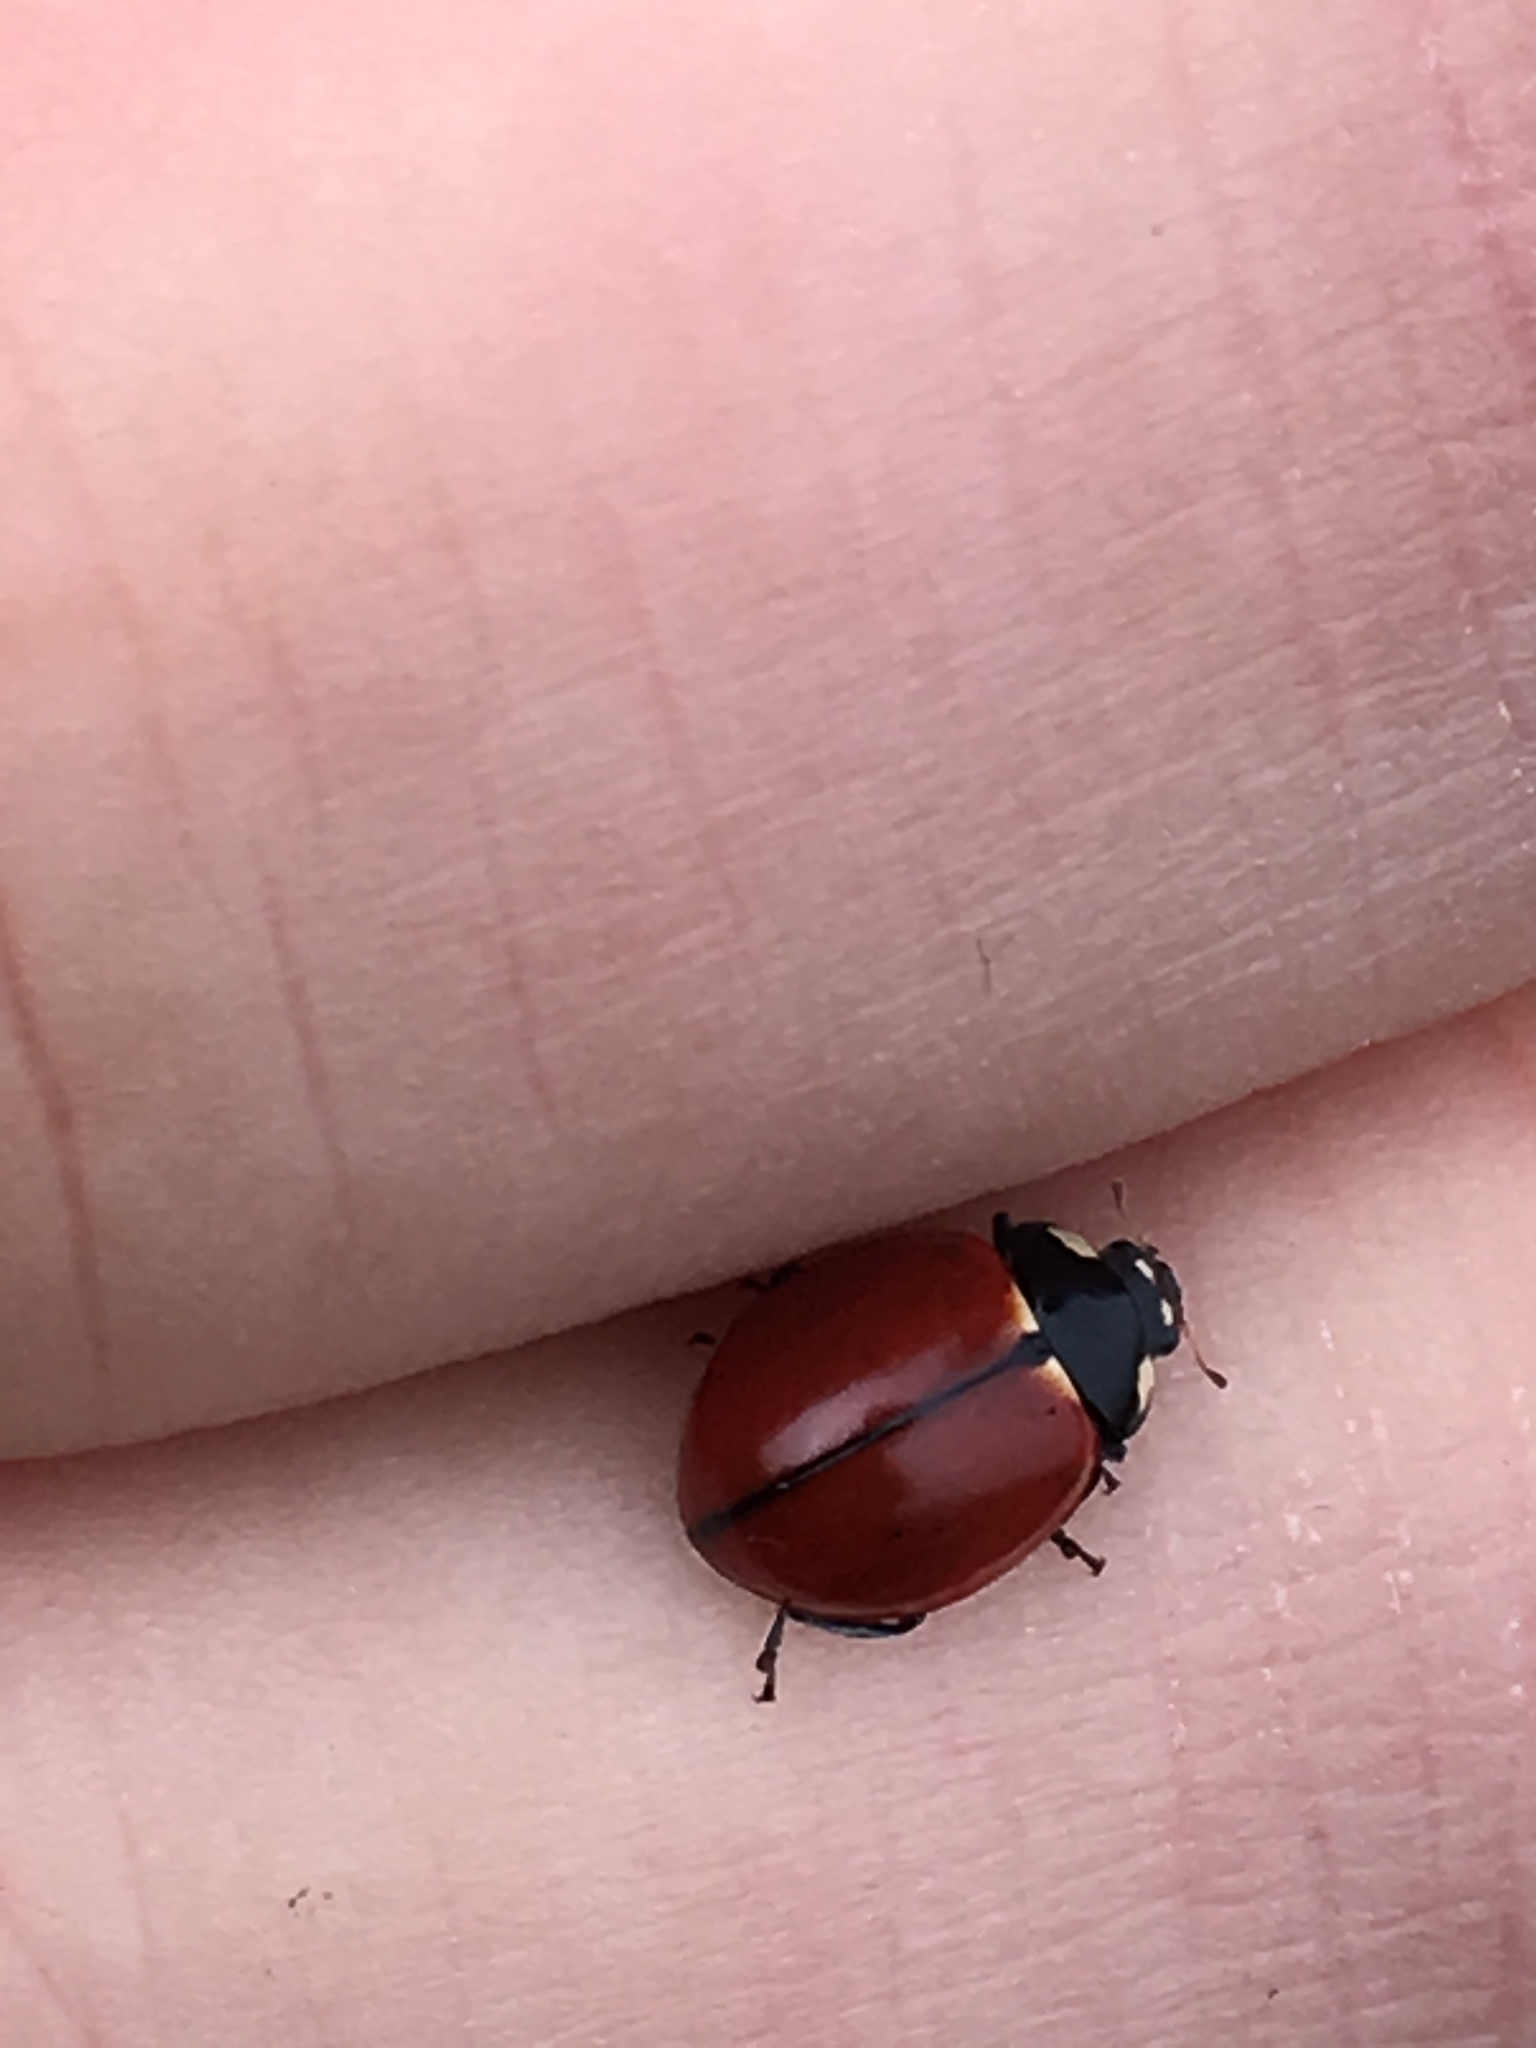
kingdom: Animalia
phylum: Arthropoda
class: Insecta
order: Coleoptera
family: Coccinellidae
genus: Coccinella
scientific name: Coccinella californica
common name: Lady beetle
